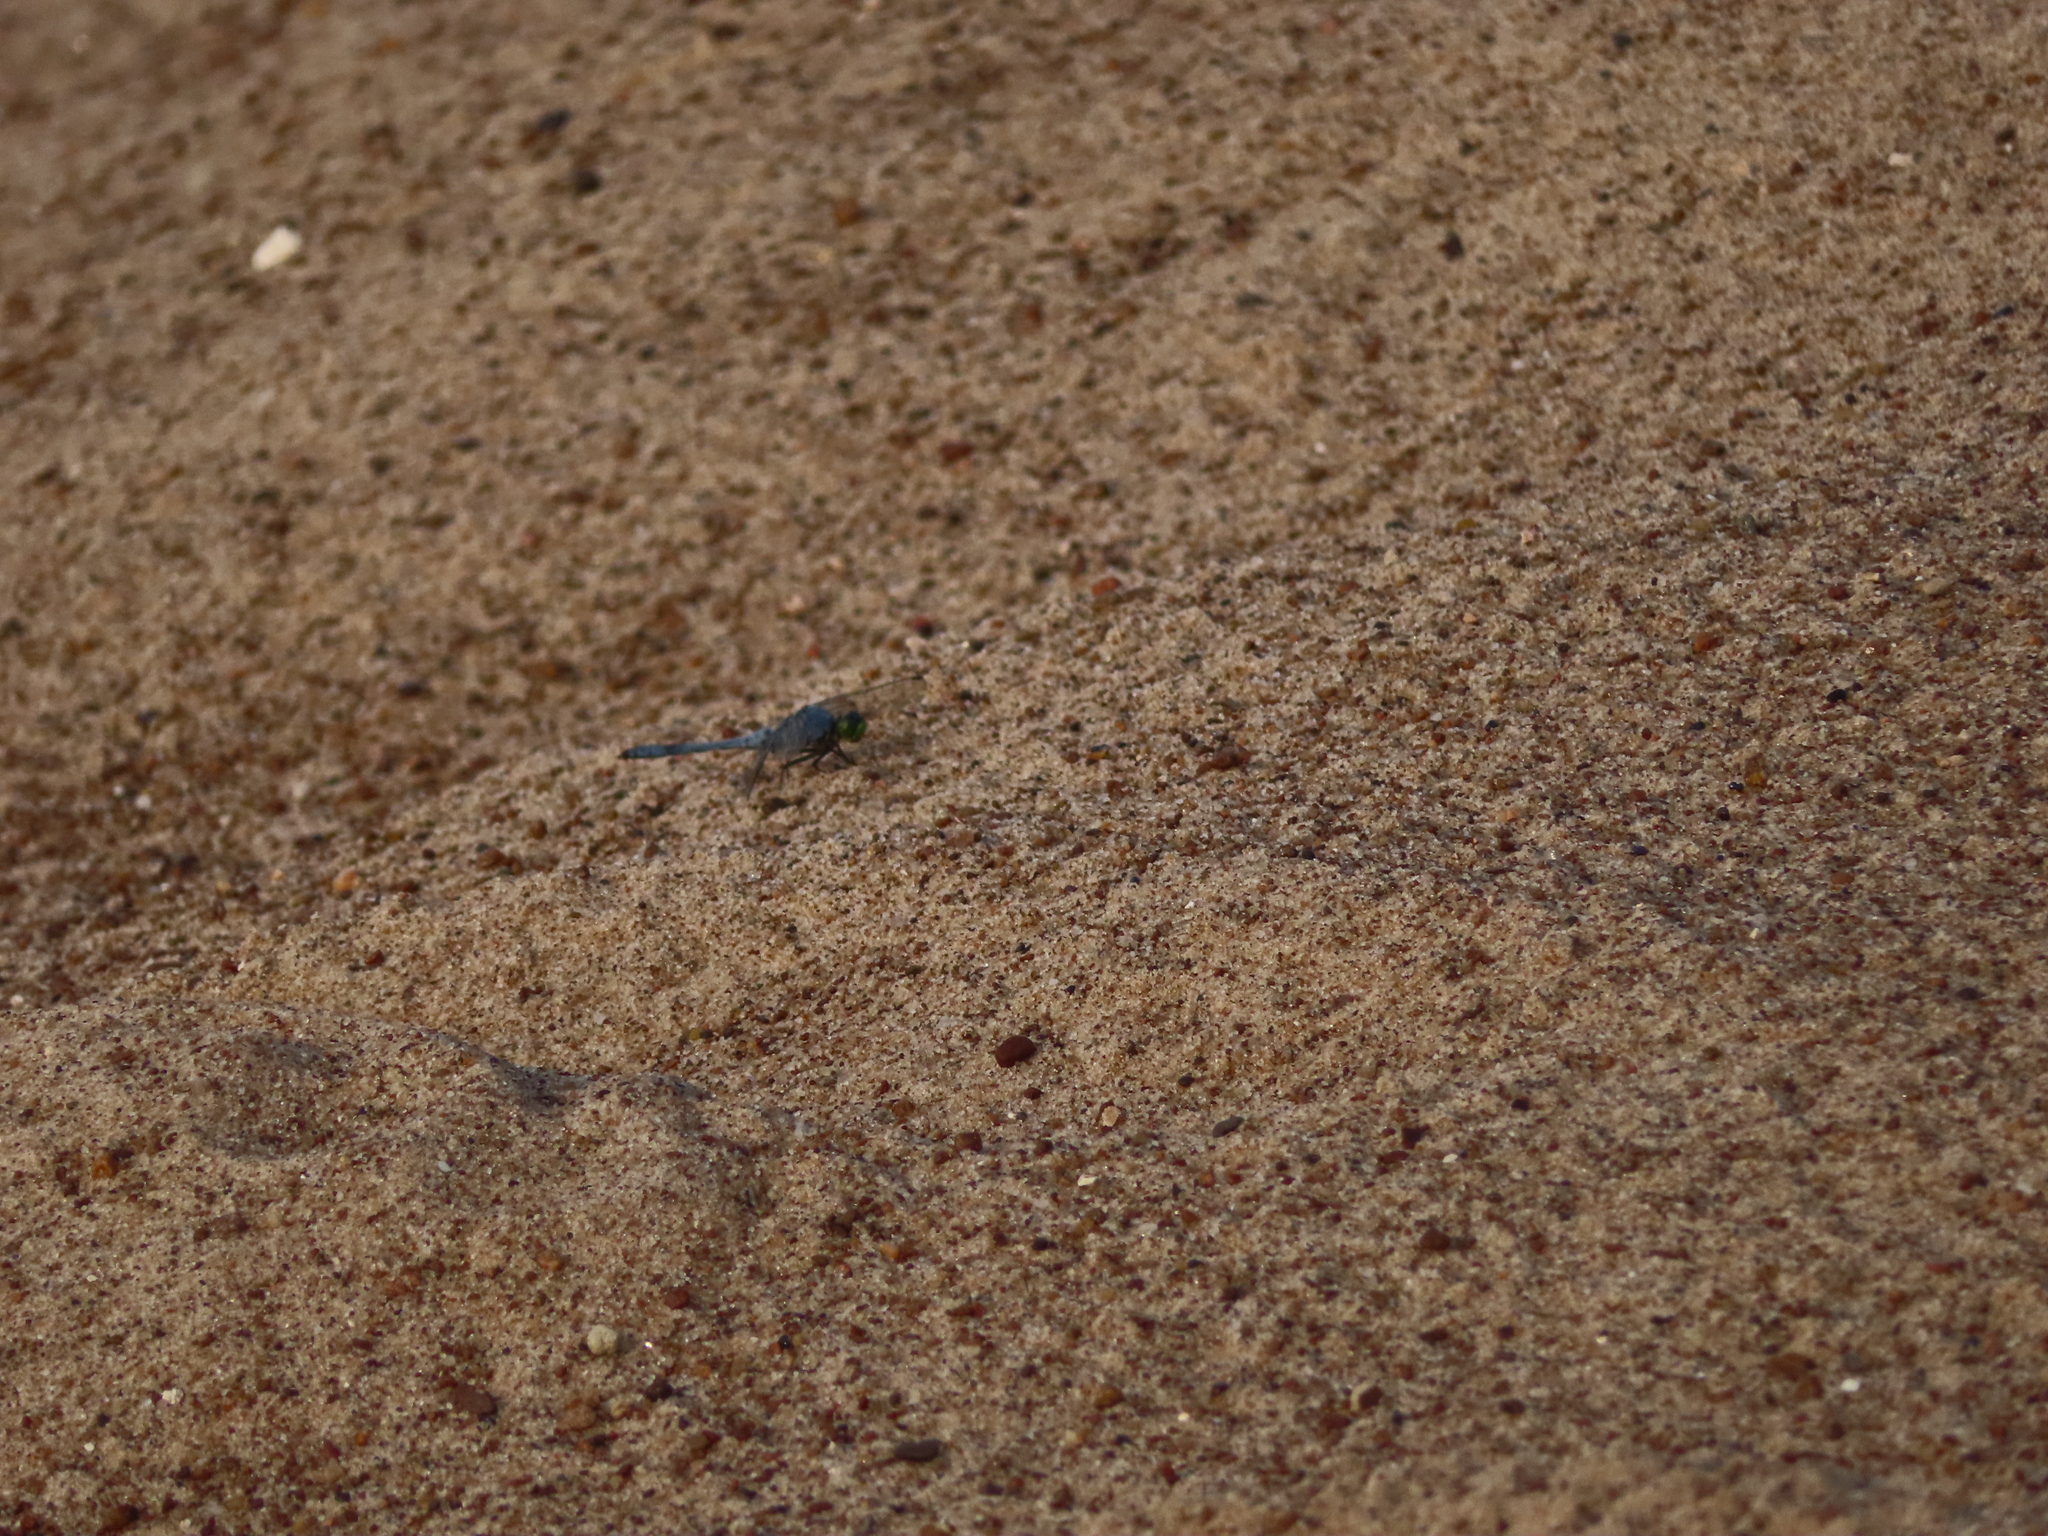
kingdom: Animalia
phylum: Arthropoda
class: Insecta
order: Odonata
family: Libellulidae
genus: Erythemis
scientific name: Erythemis simplicicollis
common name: Eastern pondhawk
